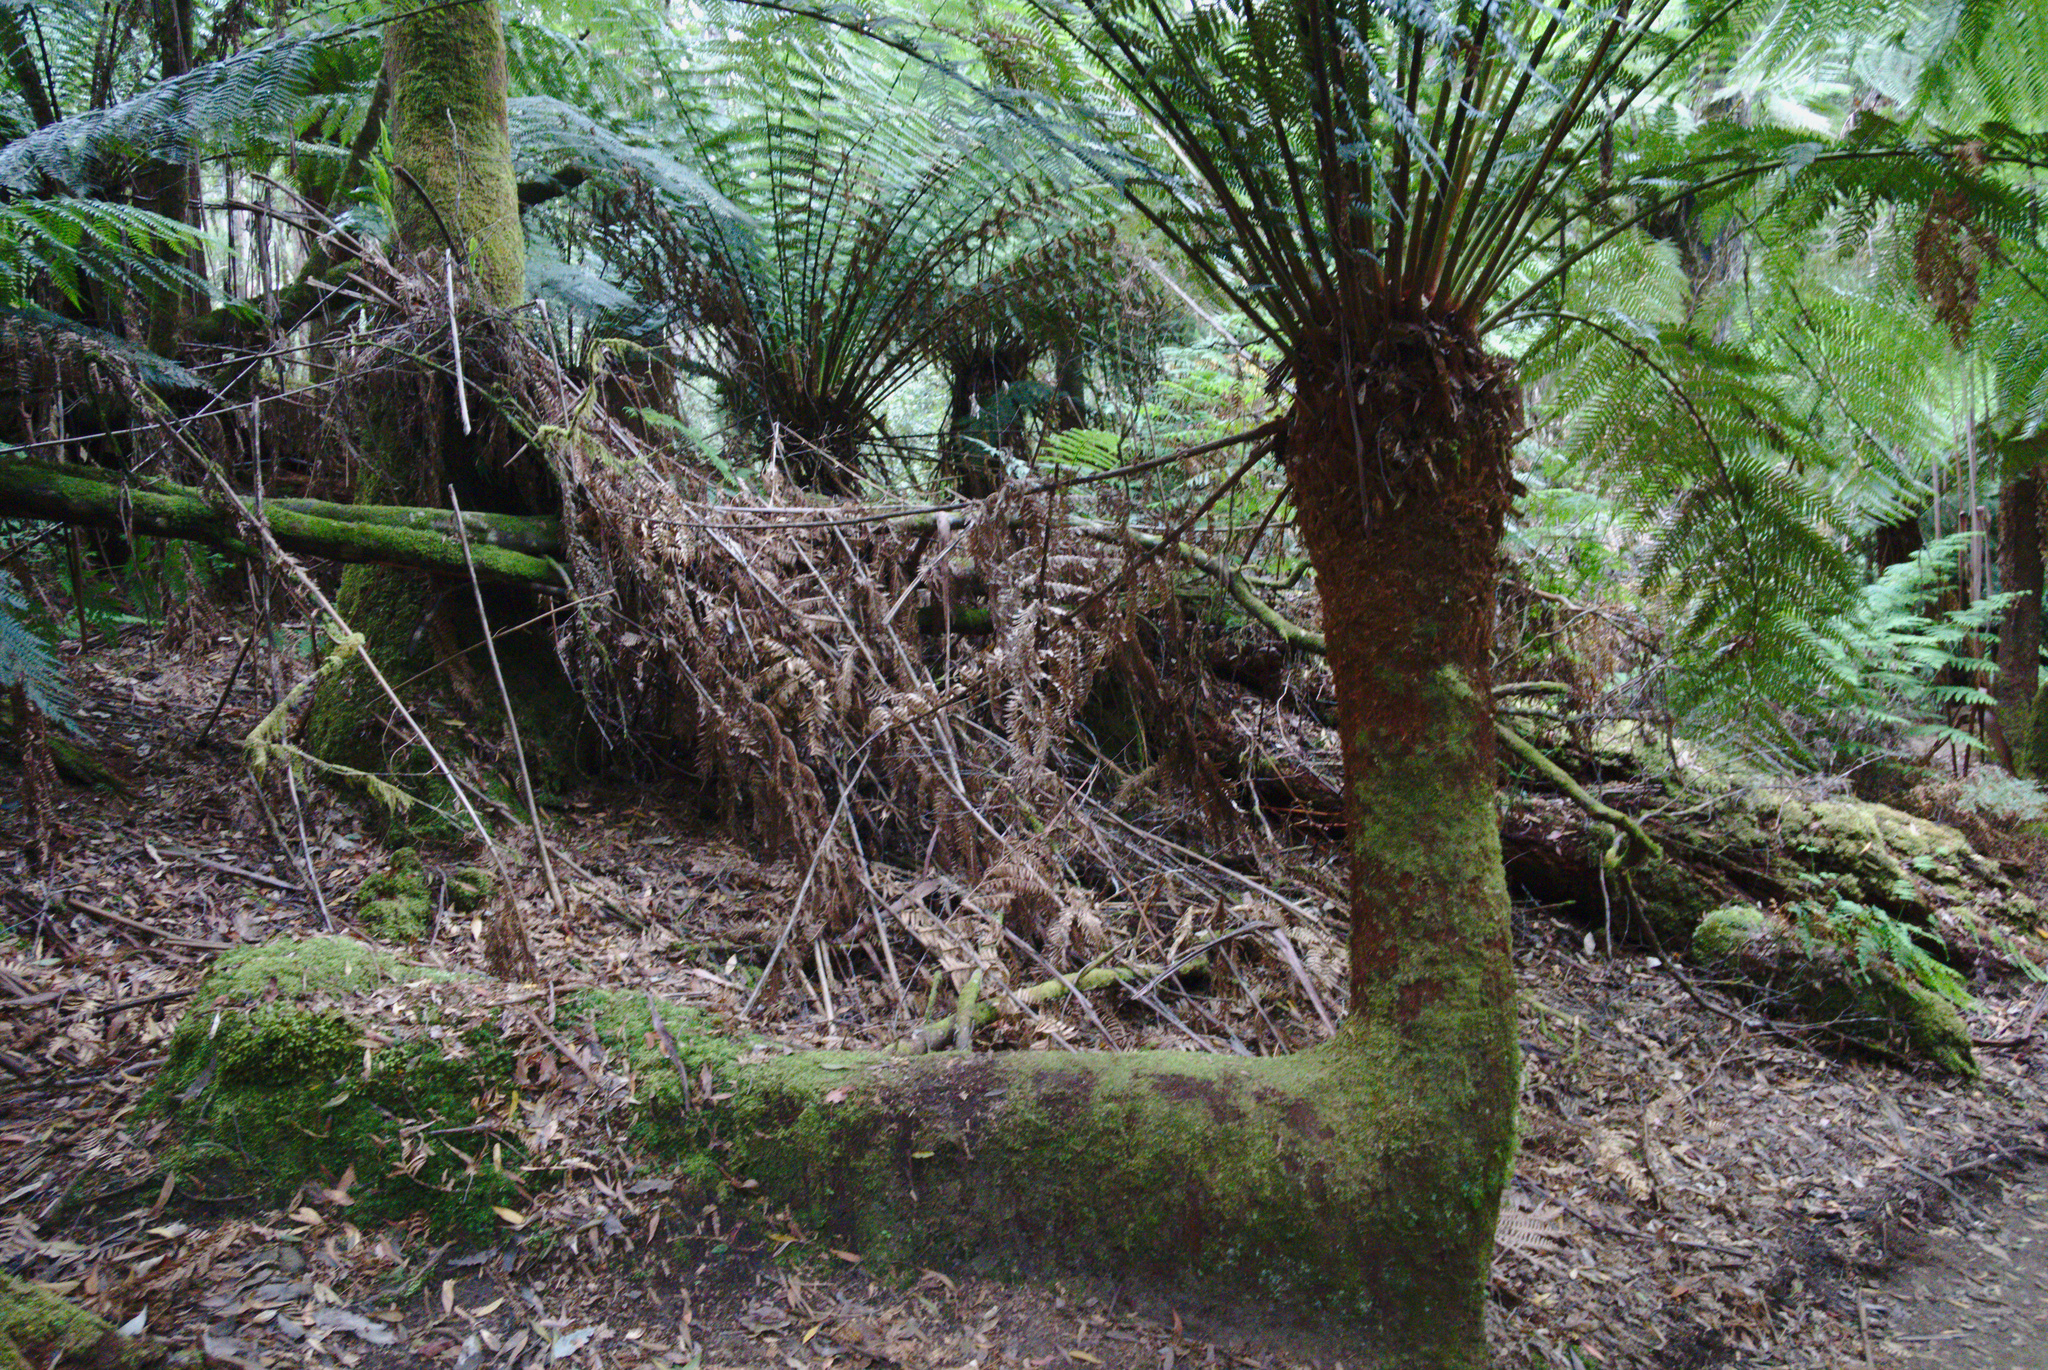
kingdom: Plantae
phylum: Tracheophyta
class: Polypodiopsida
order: Cyatheales
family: Dicksoniaceae
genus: Dicksonia
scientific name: Dicksonia antarctica
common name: Australian treefern
